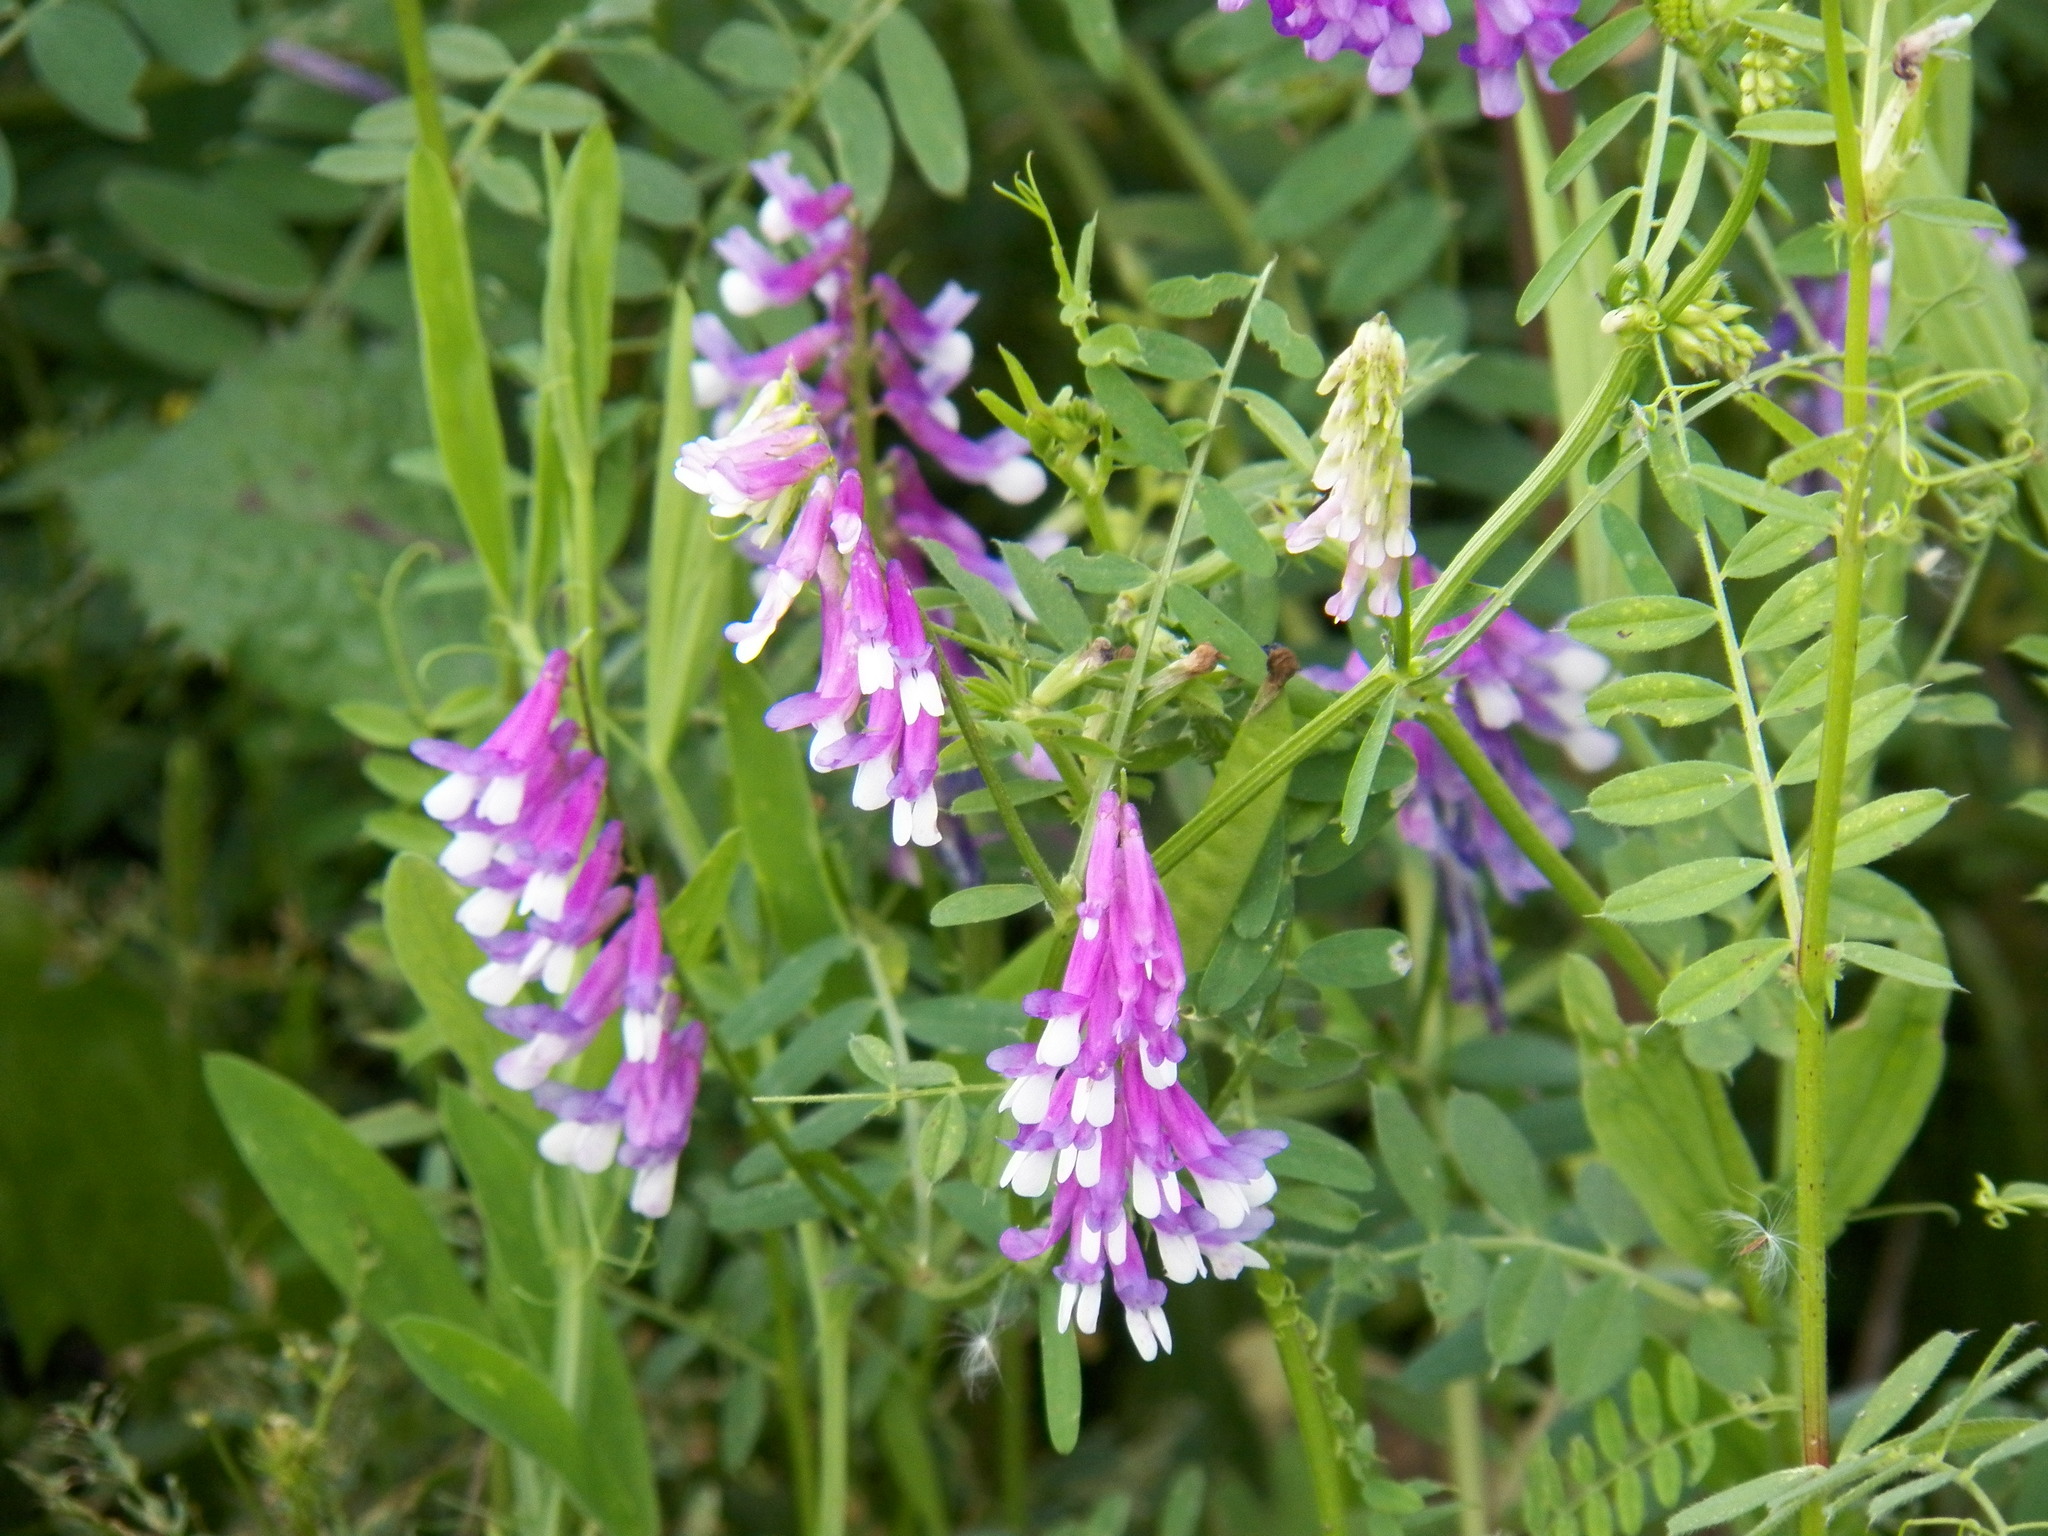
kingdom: Plantae
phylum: Tracheophyta
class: Magnoliopsida
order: Fabales
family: Fabaceae
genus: Vicia
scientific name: Vicia villosa
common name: Fodder vetch
